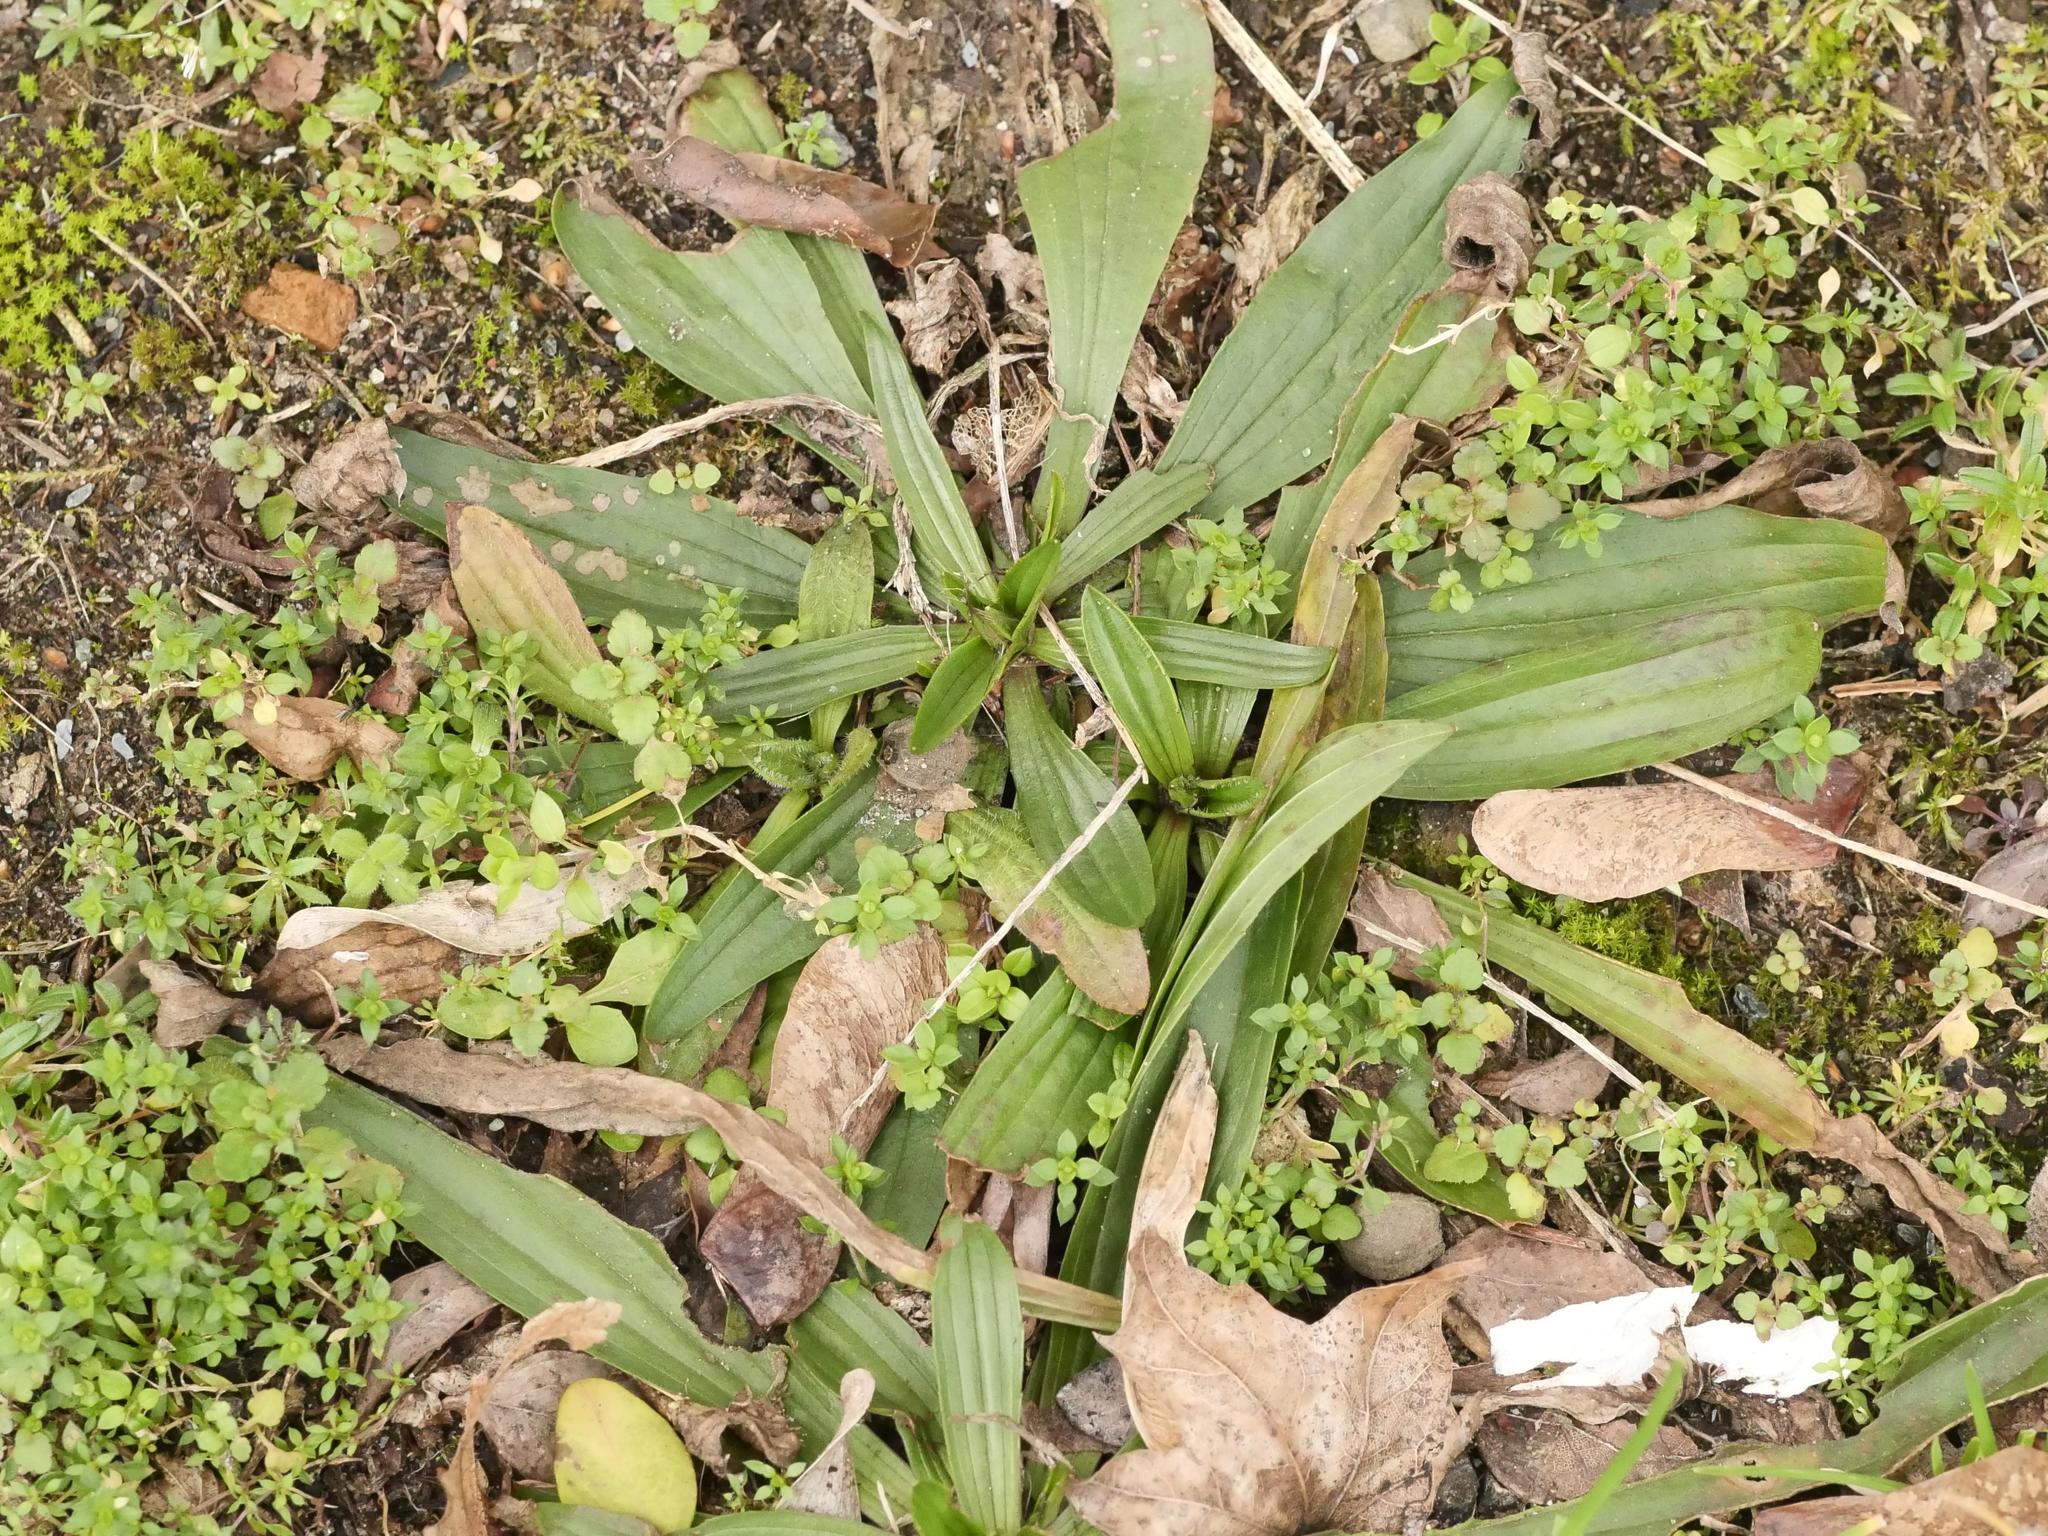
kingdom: Plantae
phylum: Tracheophyta
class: Magnoliopsida
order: Lamiales
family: Plantaginaceae
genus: Plantago
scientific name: Plantago lanceolata
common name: Ribwort plantain
